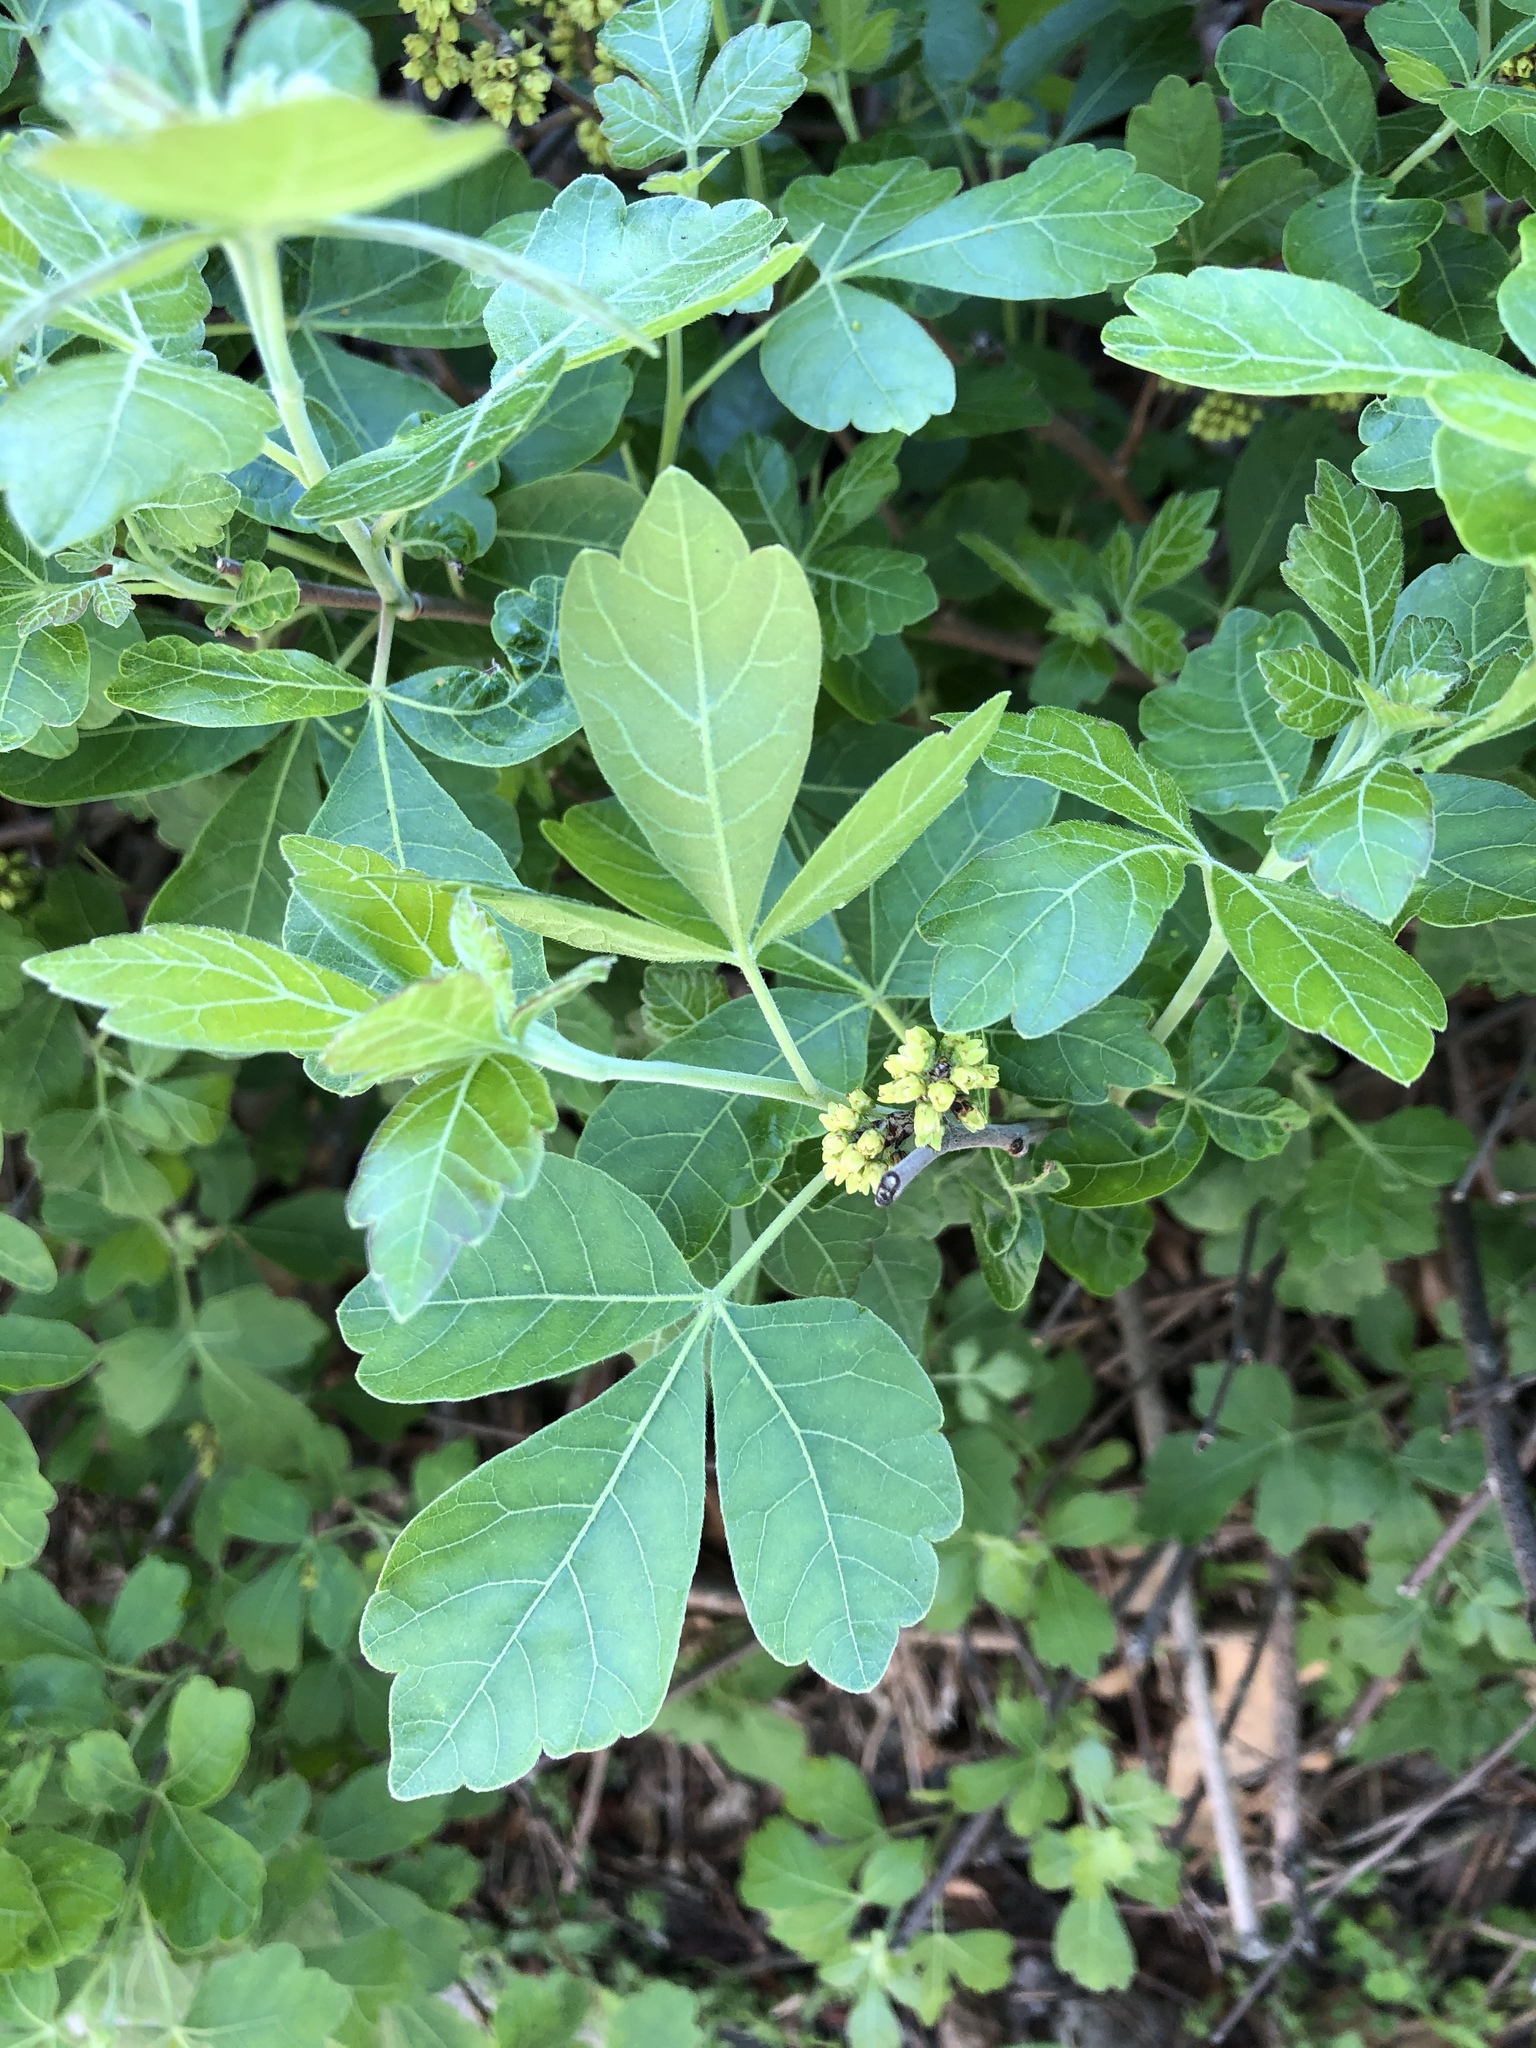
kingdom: Plantae
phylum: Tracheophyta
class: Magnoliopsida
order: Sapindales
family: Anacardiaceae
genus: Rhus
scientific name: Rhus aromatica
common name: Aromatic sumac
